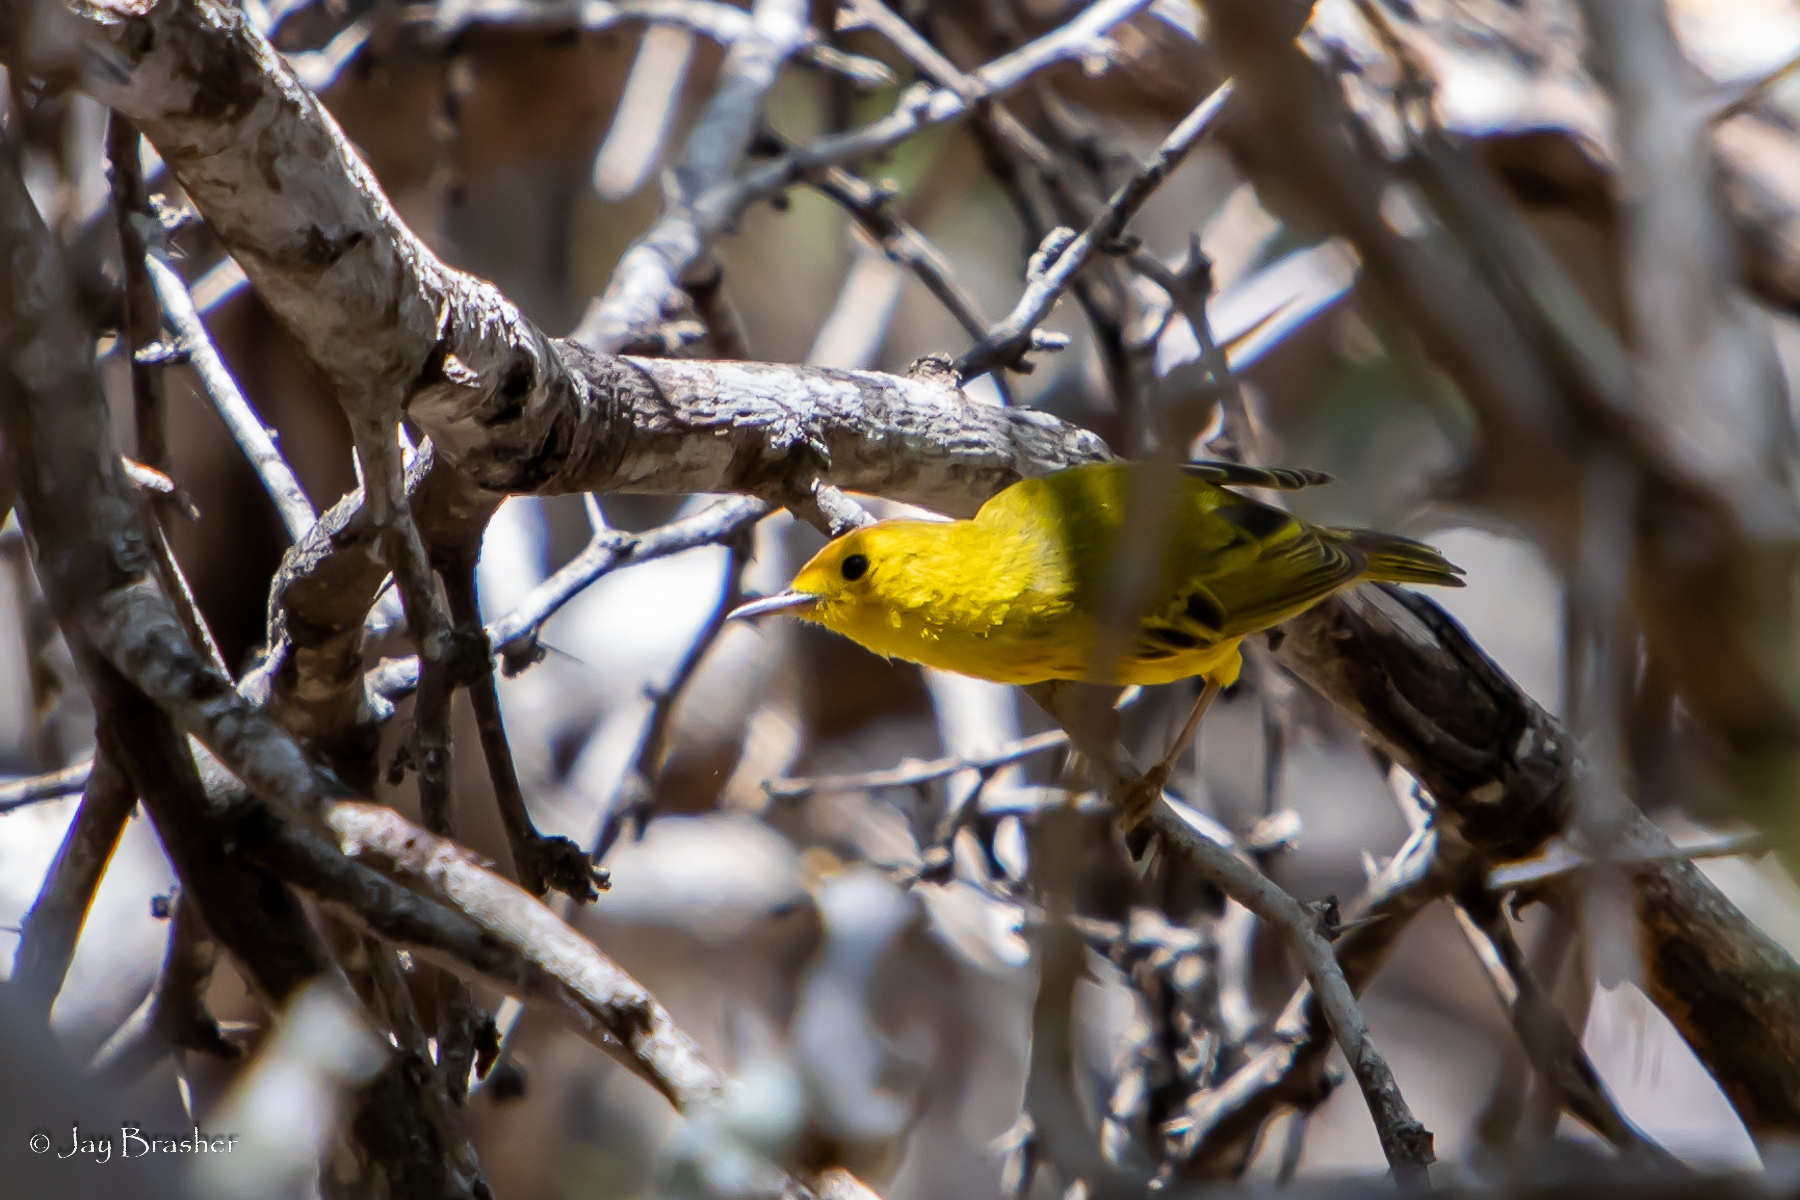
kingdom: Animalia
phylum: Chordata
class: Aves
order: Passeriformes
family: Parulidae
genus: Setophaga
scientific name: Setophaga petechia
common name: Yellow warbler
